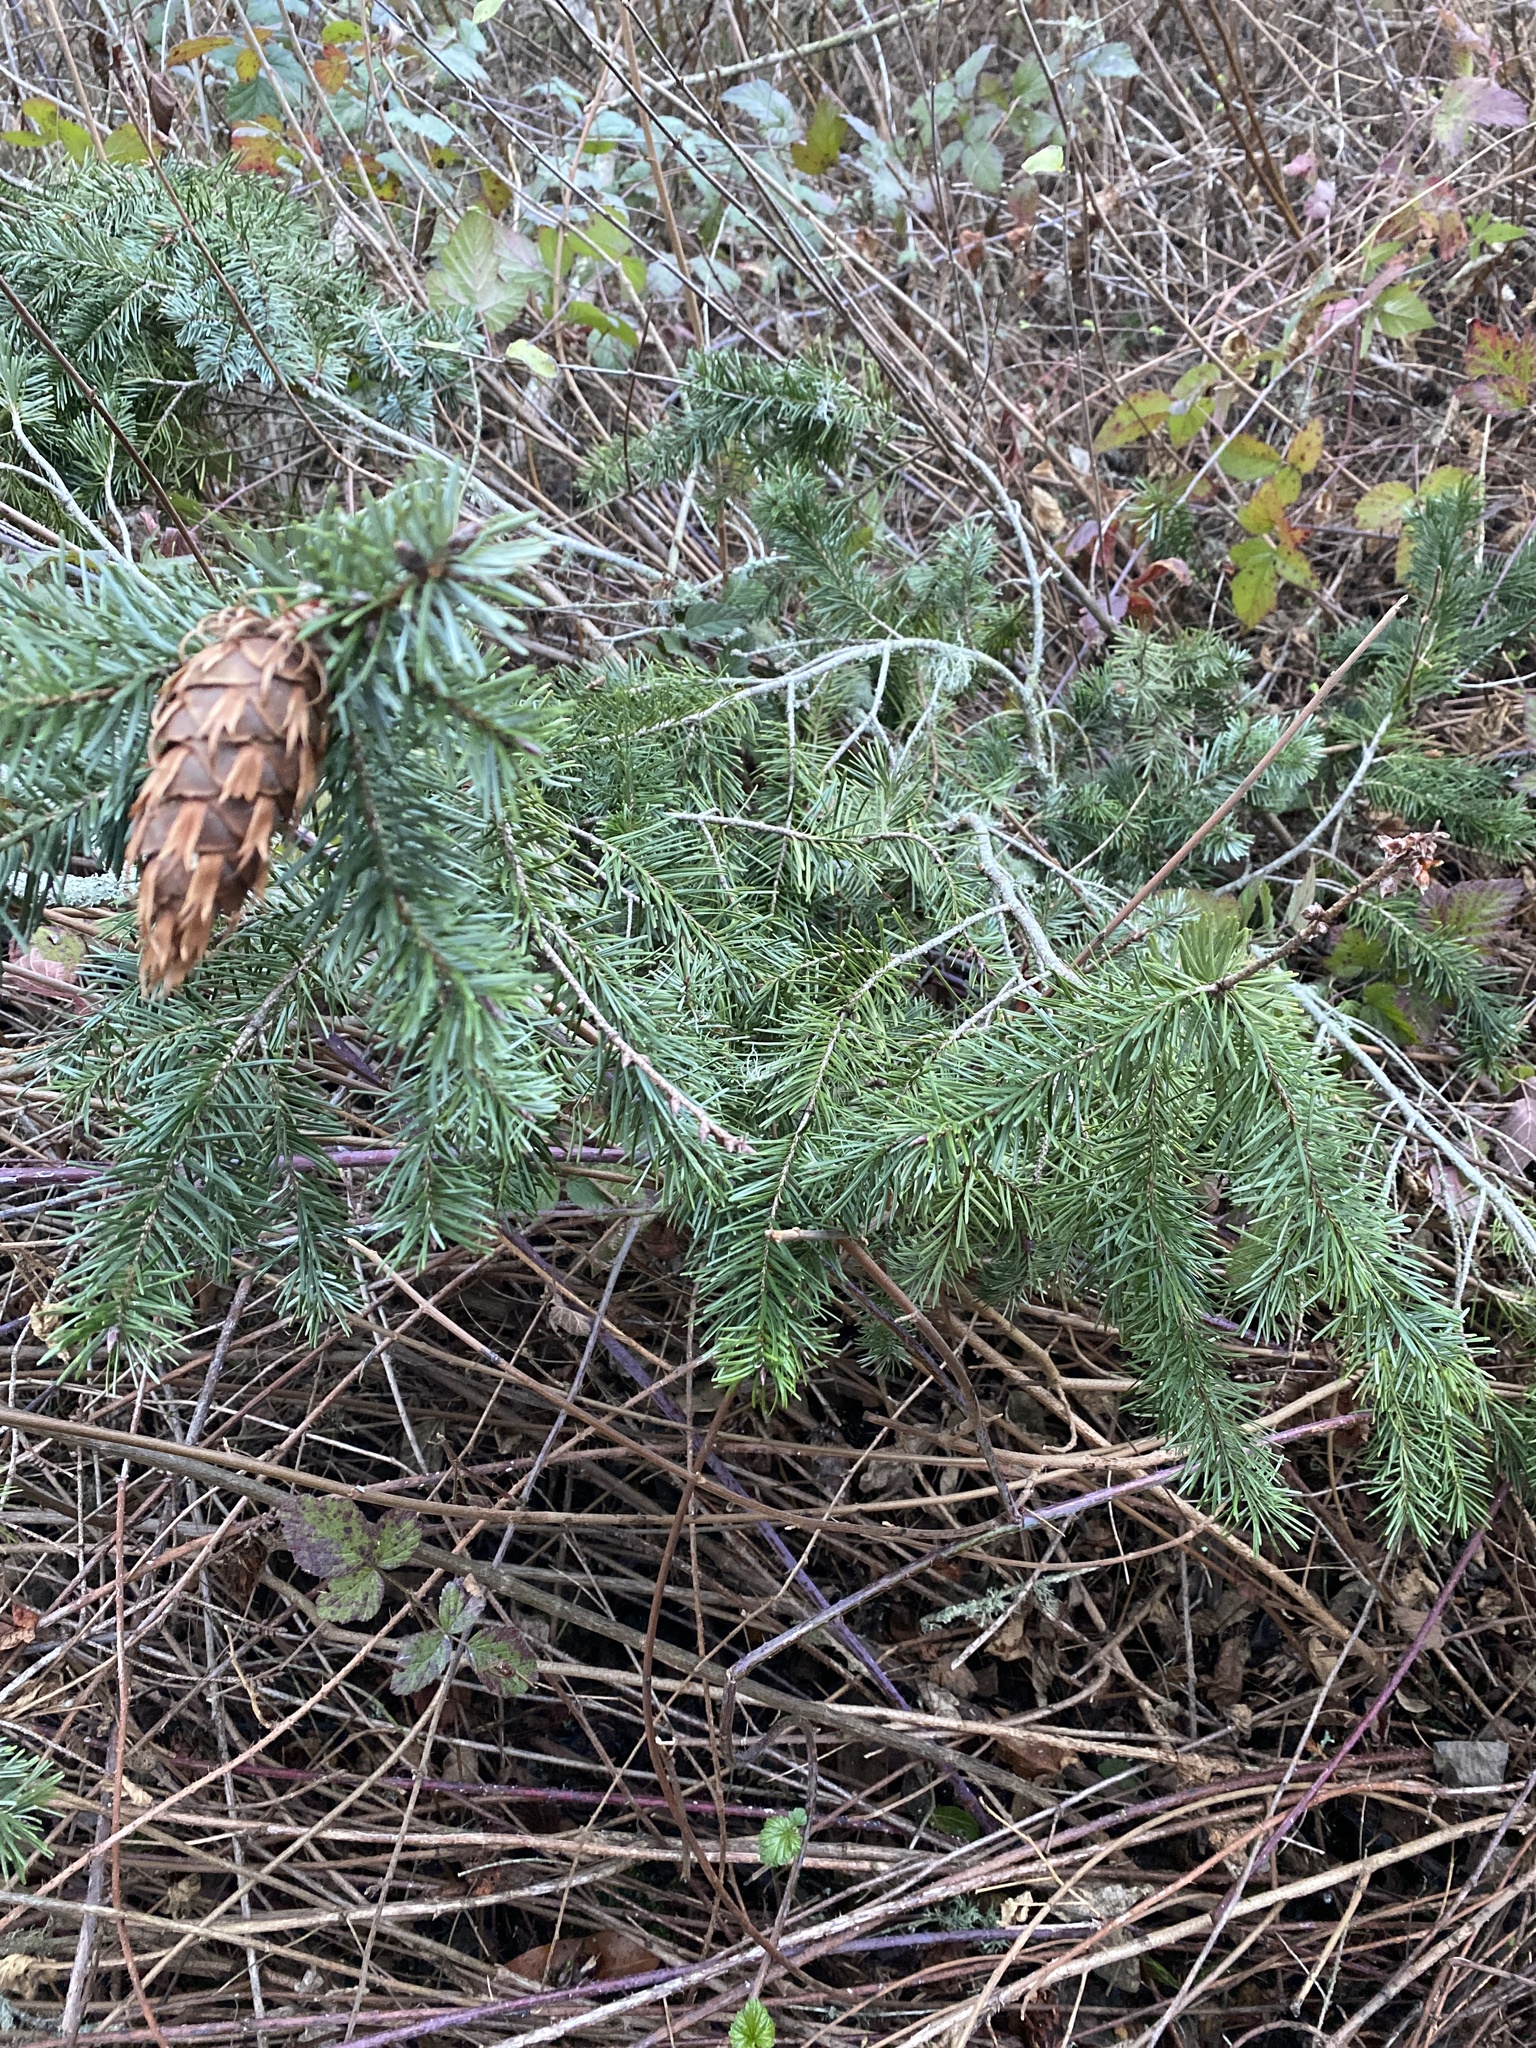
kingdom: Plantae
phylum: Tracheophyta
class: Pinopsida
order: Pinales
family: Pinaceae
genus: Pseudotsuga
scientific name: Pseudotsuga menziesii
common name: Douglas fir
